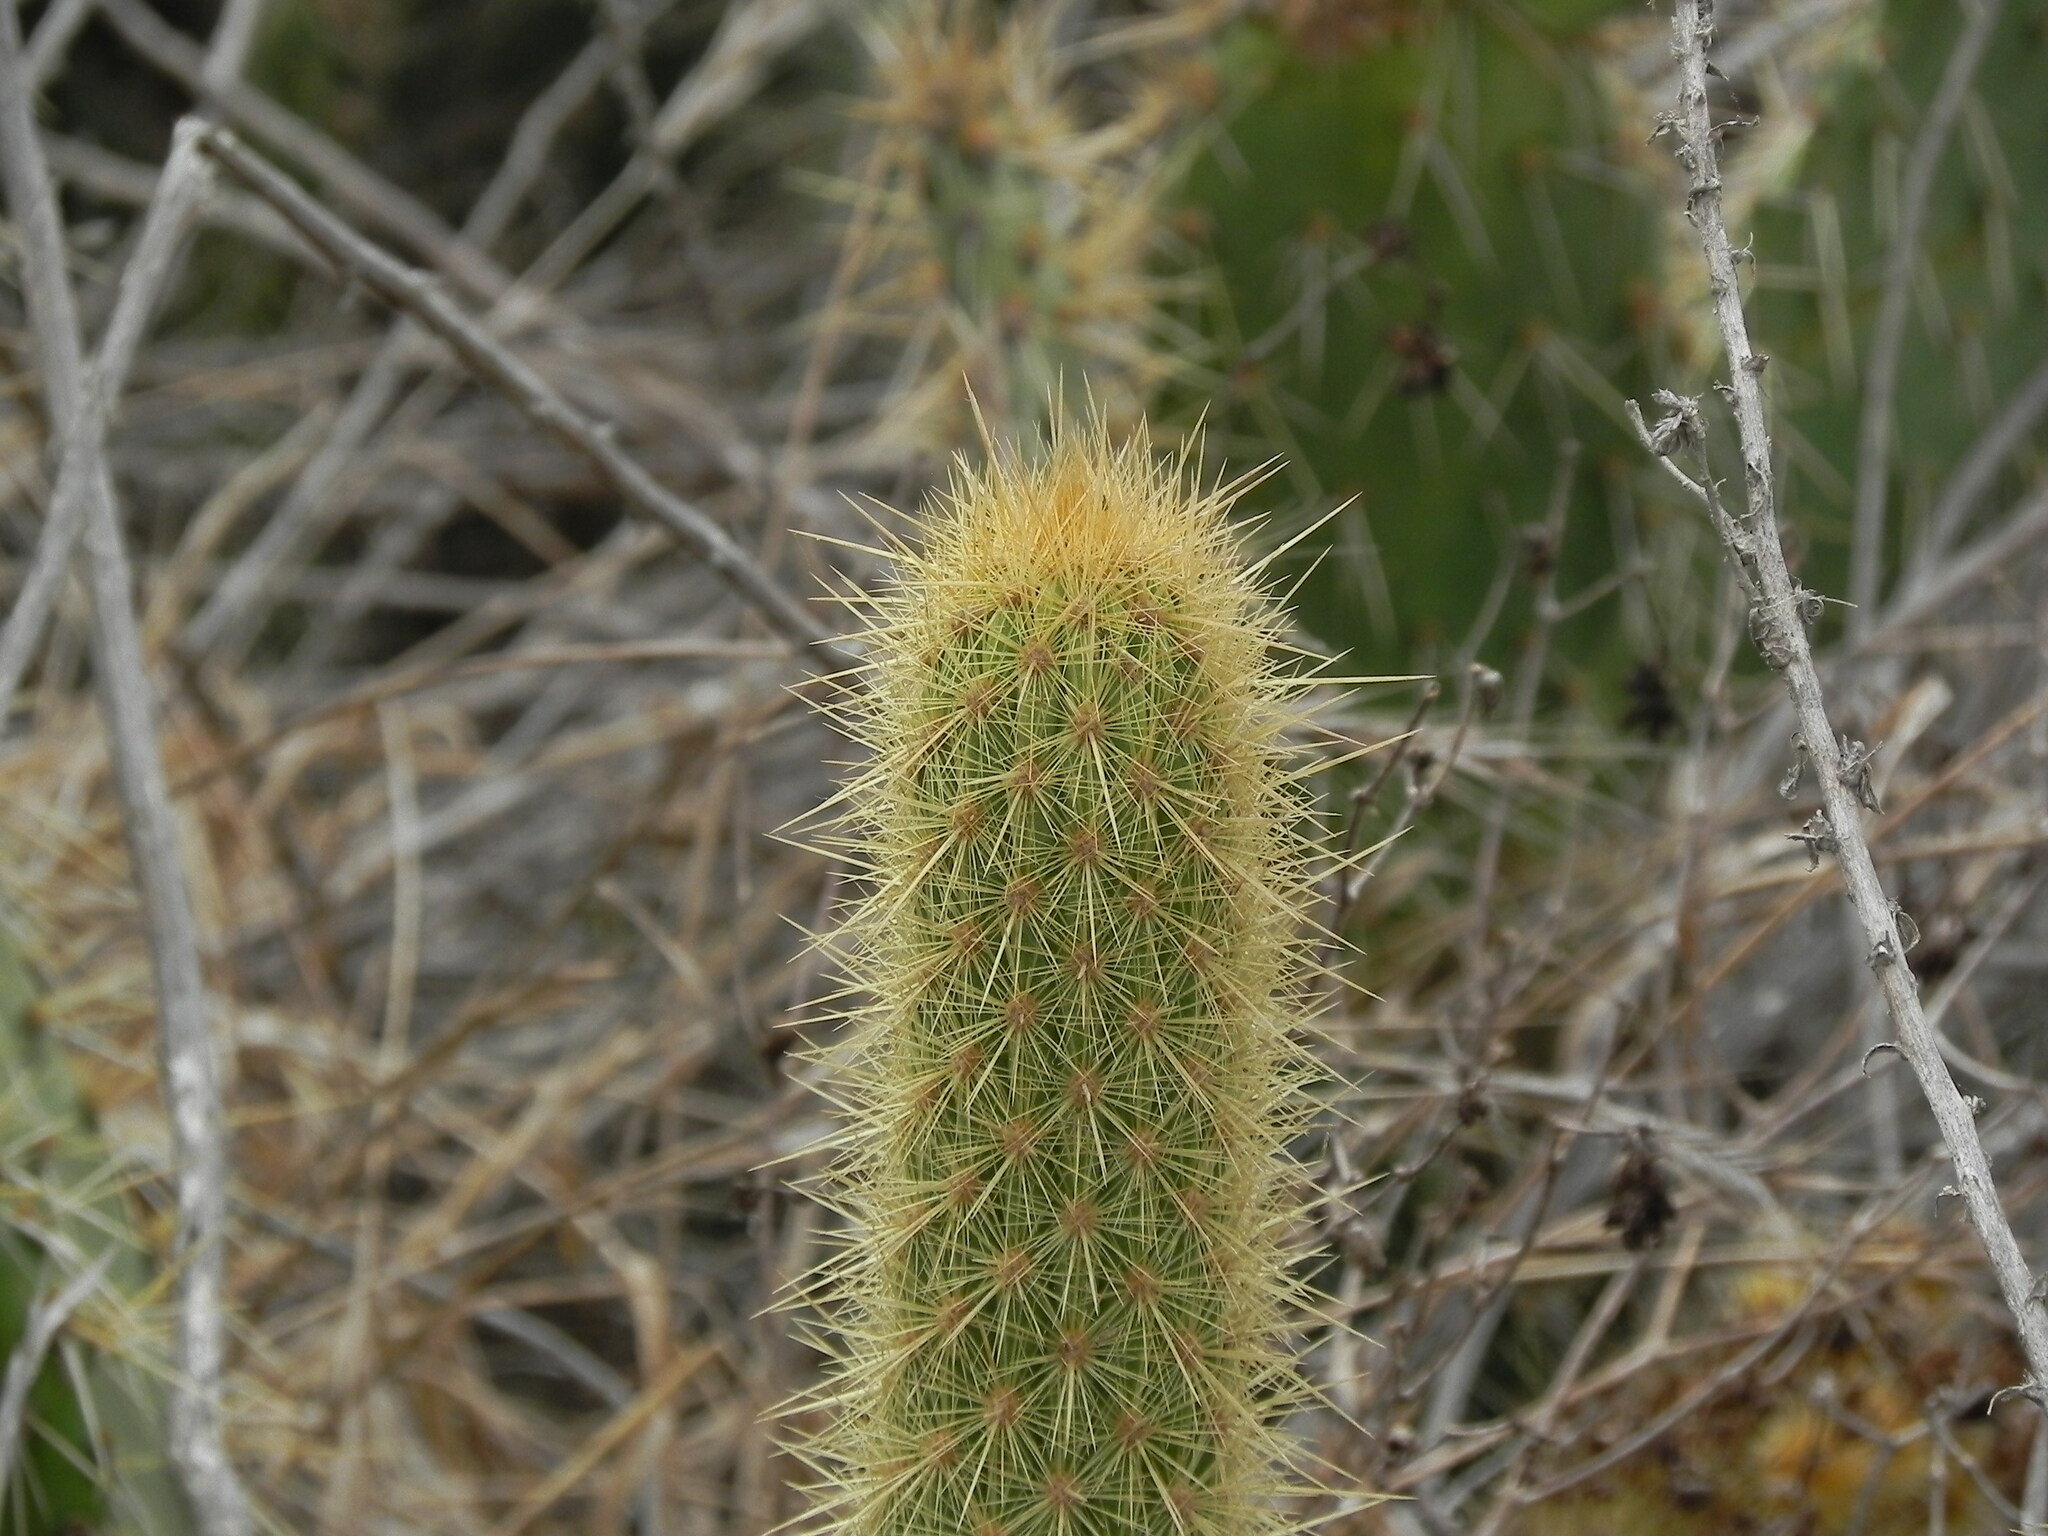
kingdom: Plantae
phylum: Tracheophyta
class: Magnoliopsida
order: Caryophyllales
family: Cactaceae
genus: Bergerocactus
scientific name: Bergerocactus emoryi
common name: Golden snakecactus
